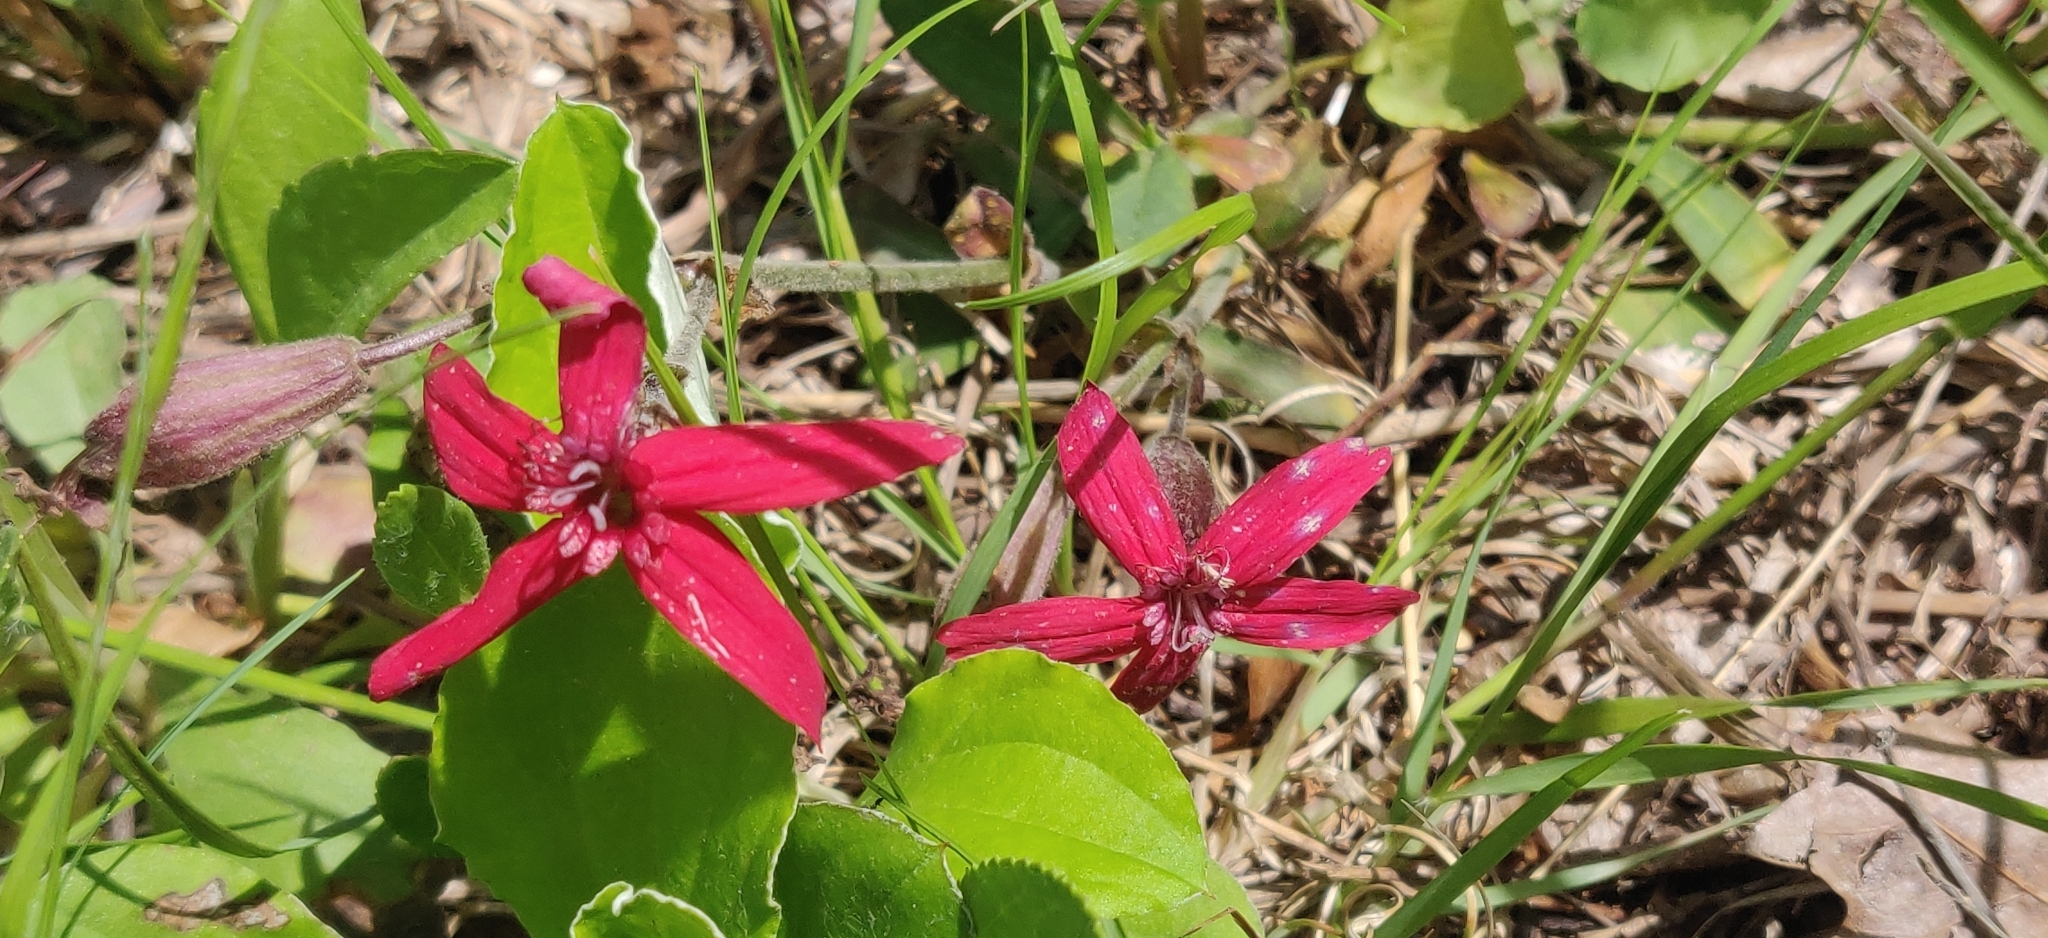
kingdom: Plantae
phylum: Tracheophyta
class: Magnoliopsida
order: Caryophyllales
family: Caryophyllaceae
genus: Silene
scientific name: Silene virginica
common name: Fire-pink
